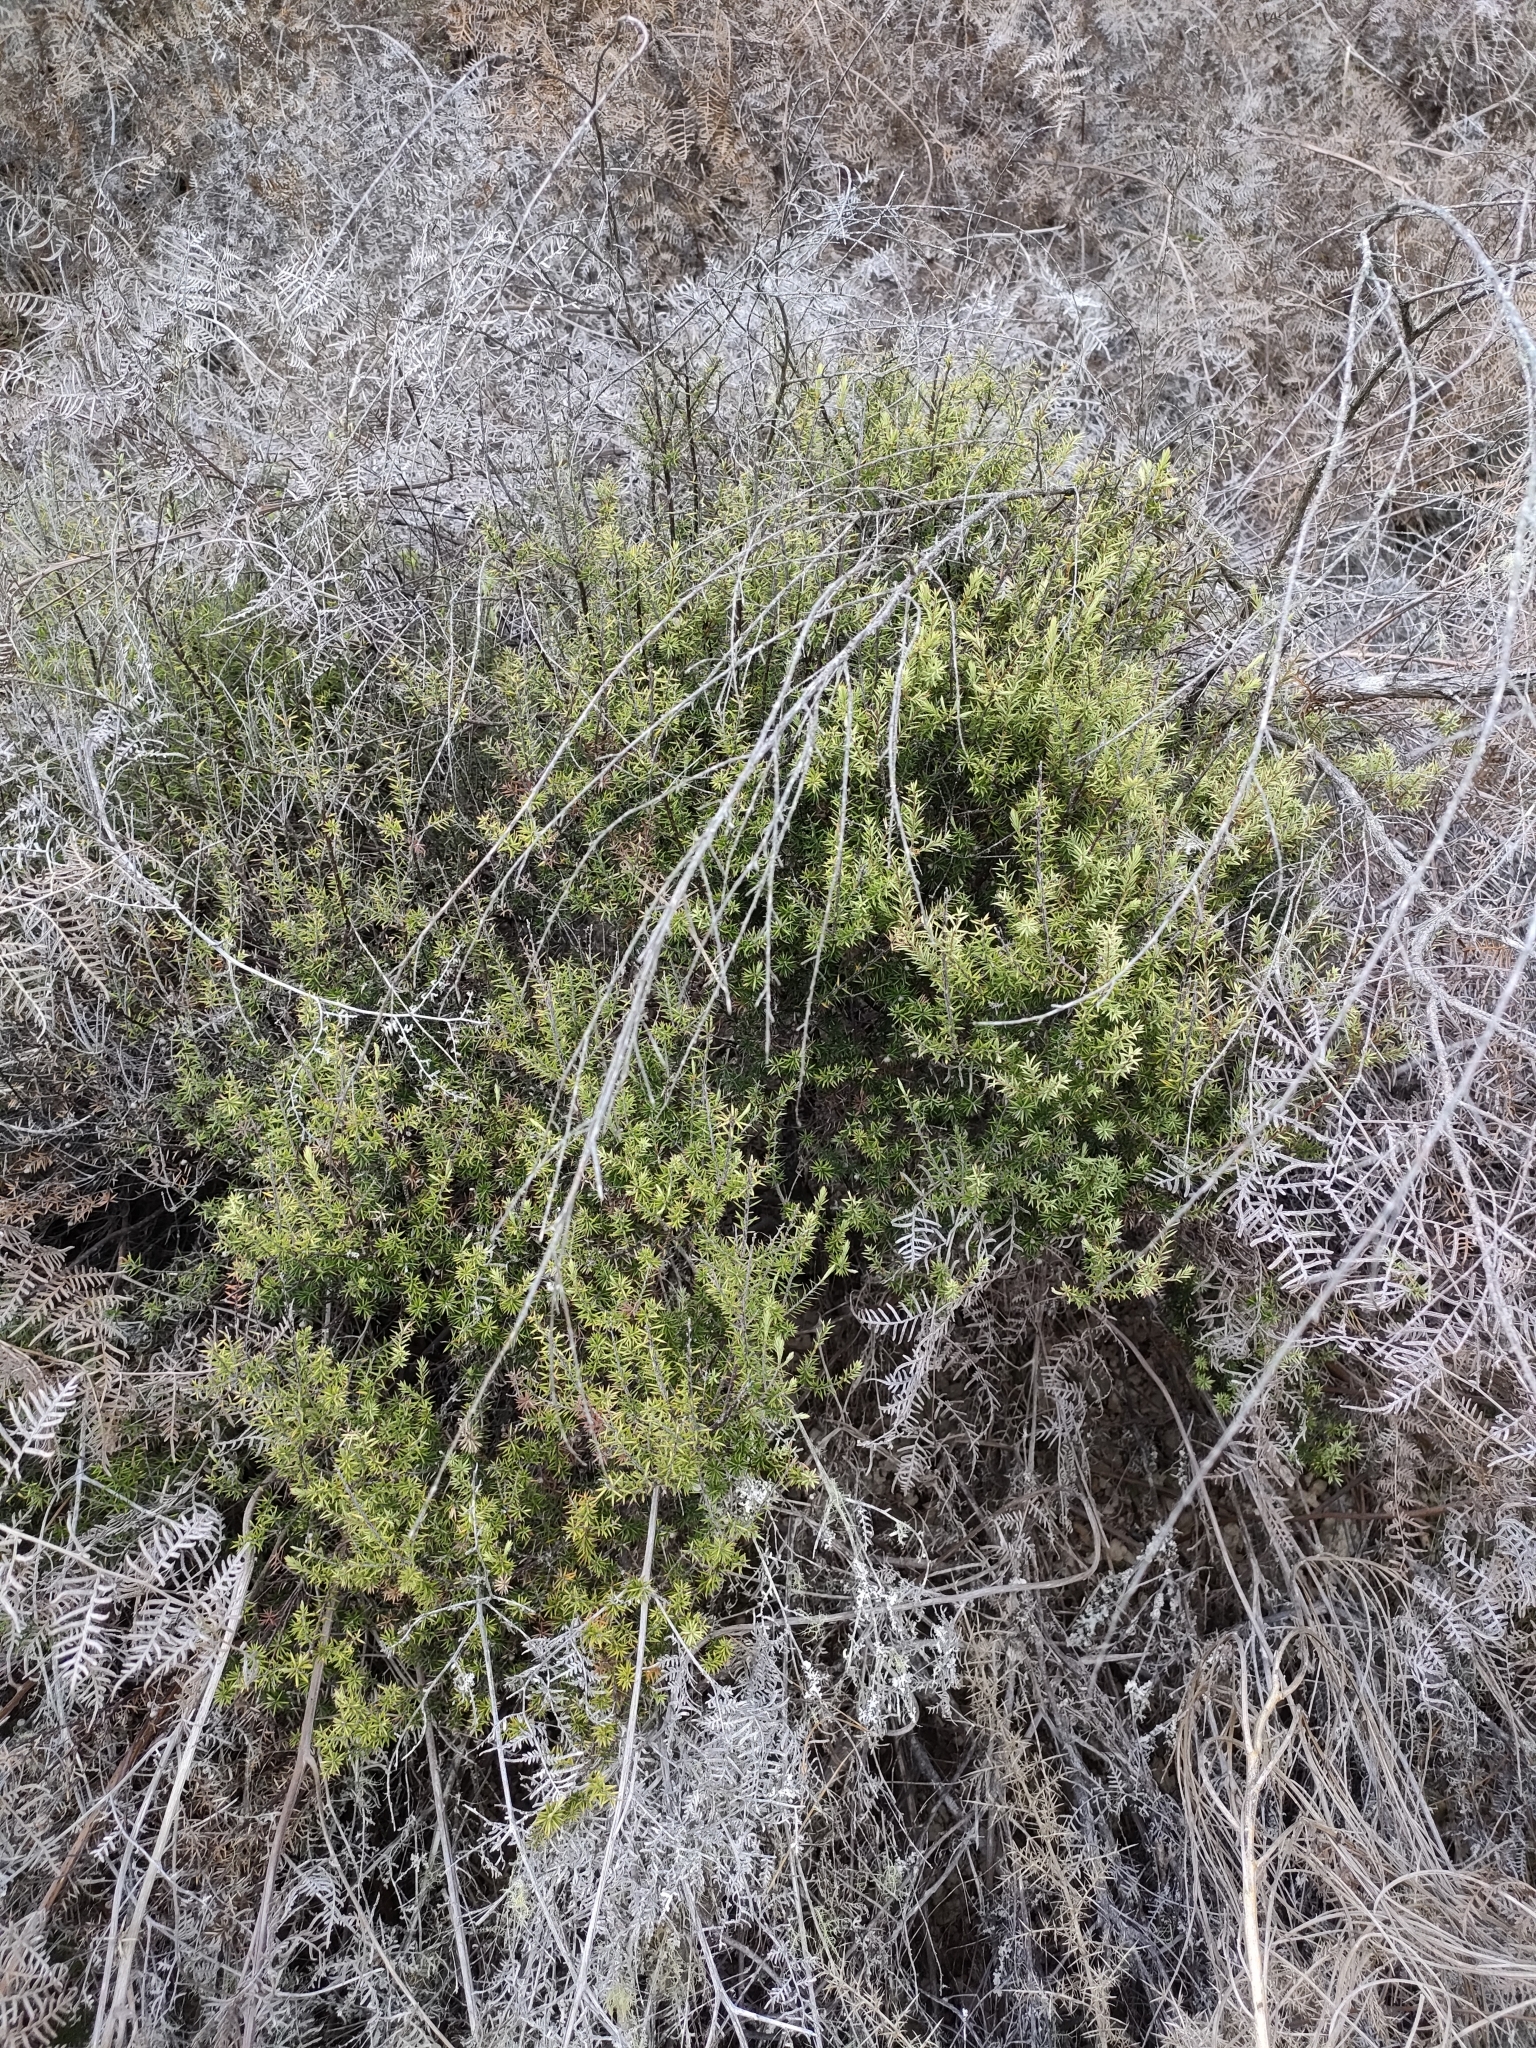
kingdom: Plantae
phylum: Tracheophyta
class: Magnoliopsida
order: Ericales
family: Ericaceae
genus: Leptecophylla
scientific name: Leptecophylla juniperina
